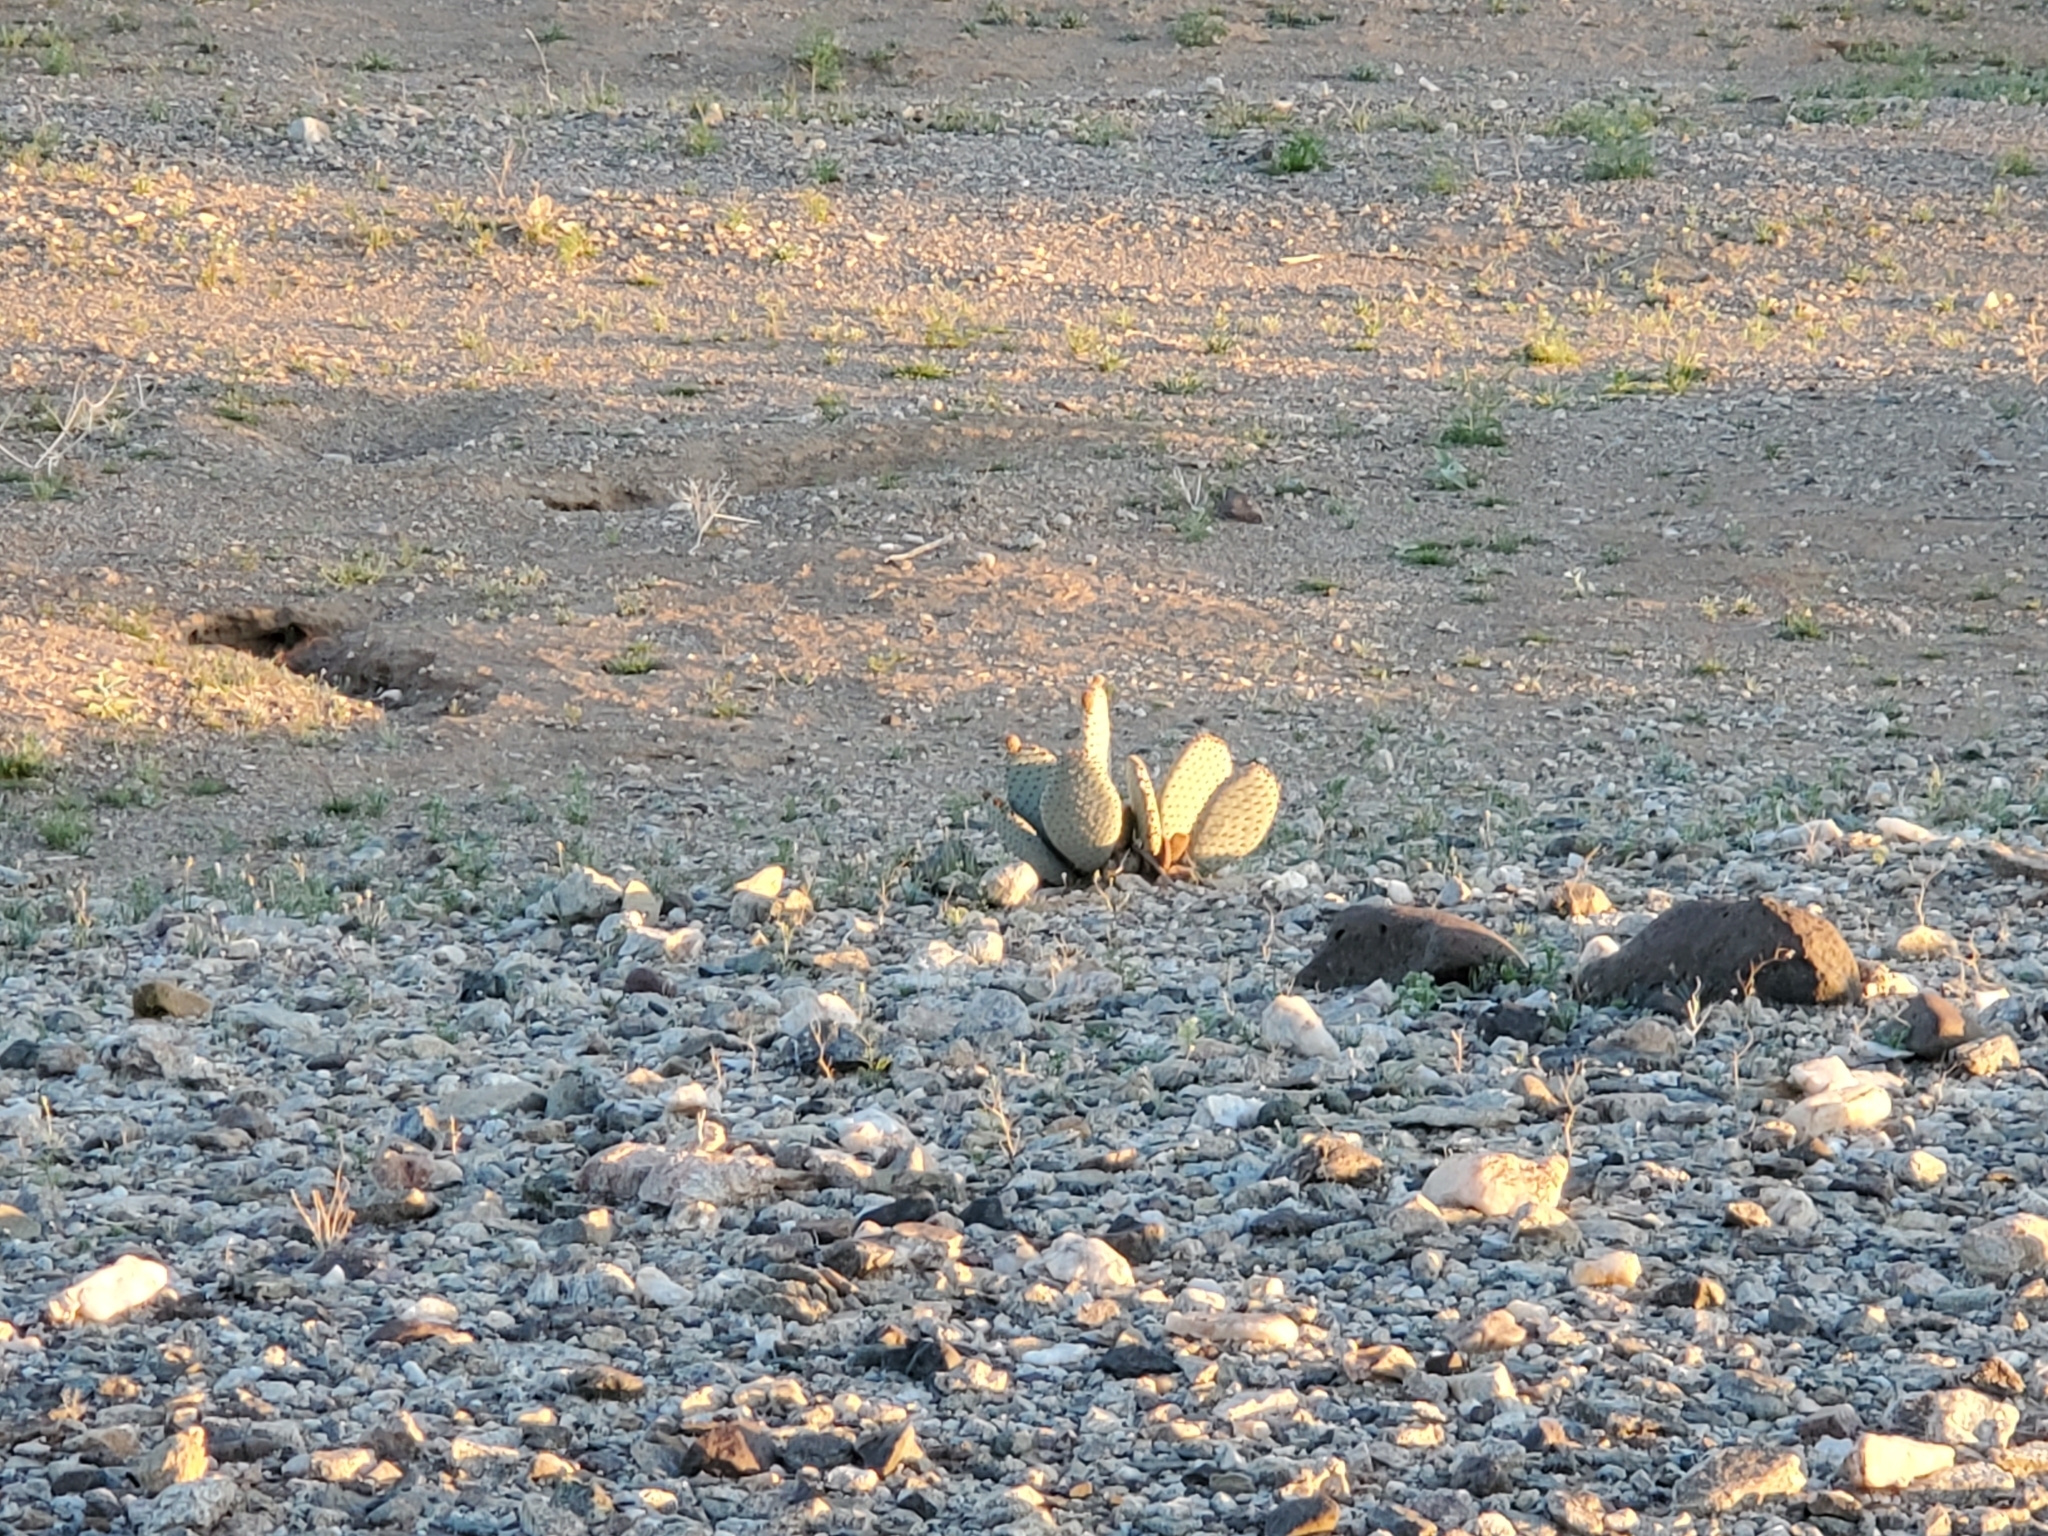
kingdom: Plantae
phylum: Tracheophyta
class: Magnoliopsida
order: Caryophyllales
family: Cactaceae
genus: Opuntia
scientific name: Opuntia basilaris
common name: Beavertail prickly-pear
